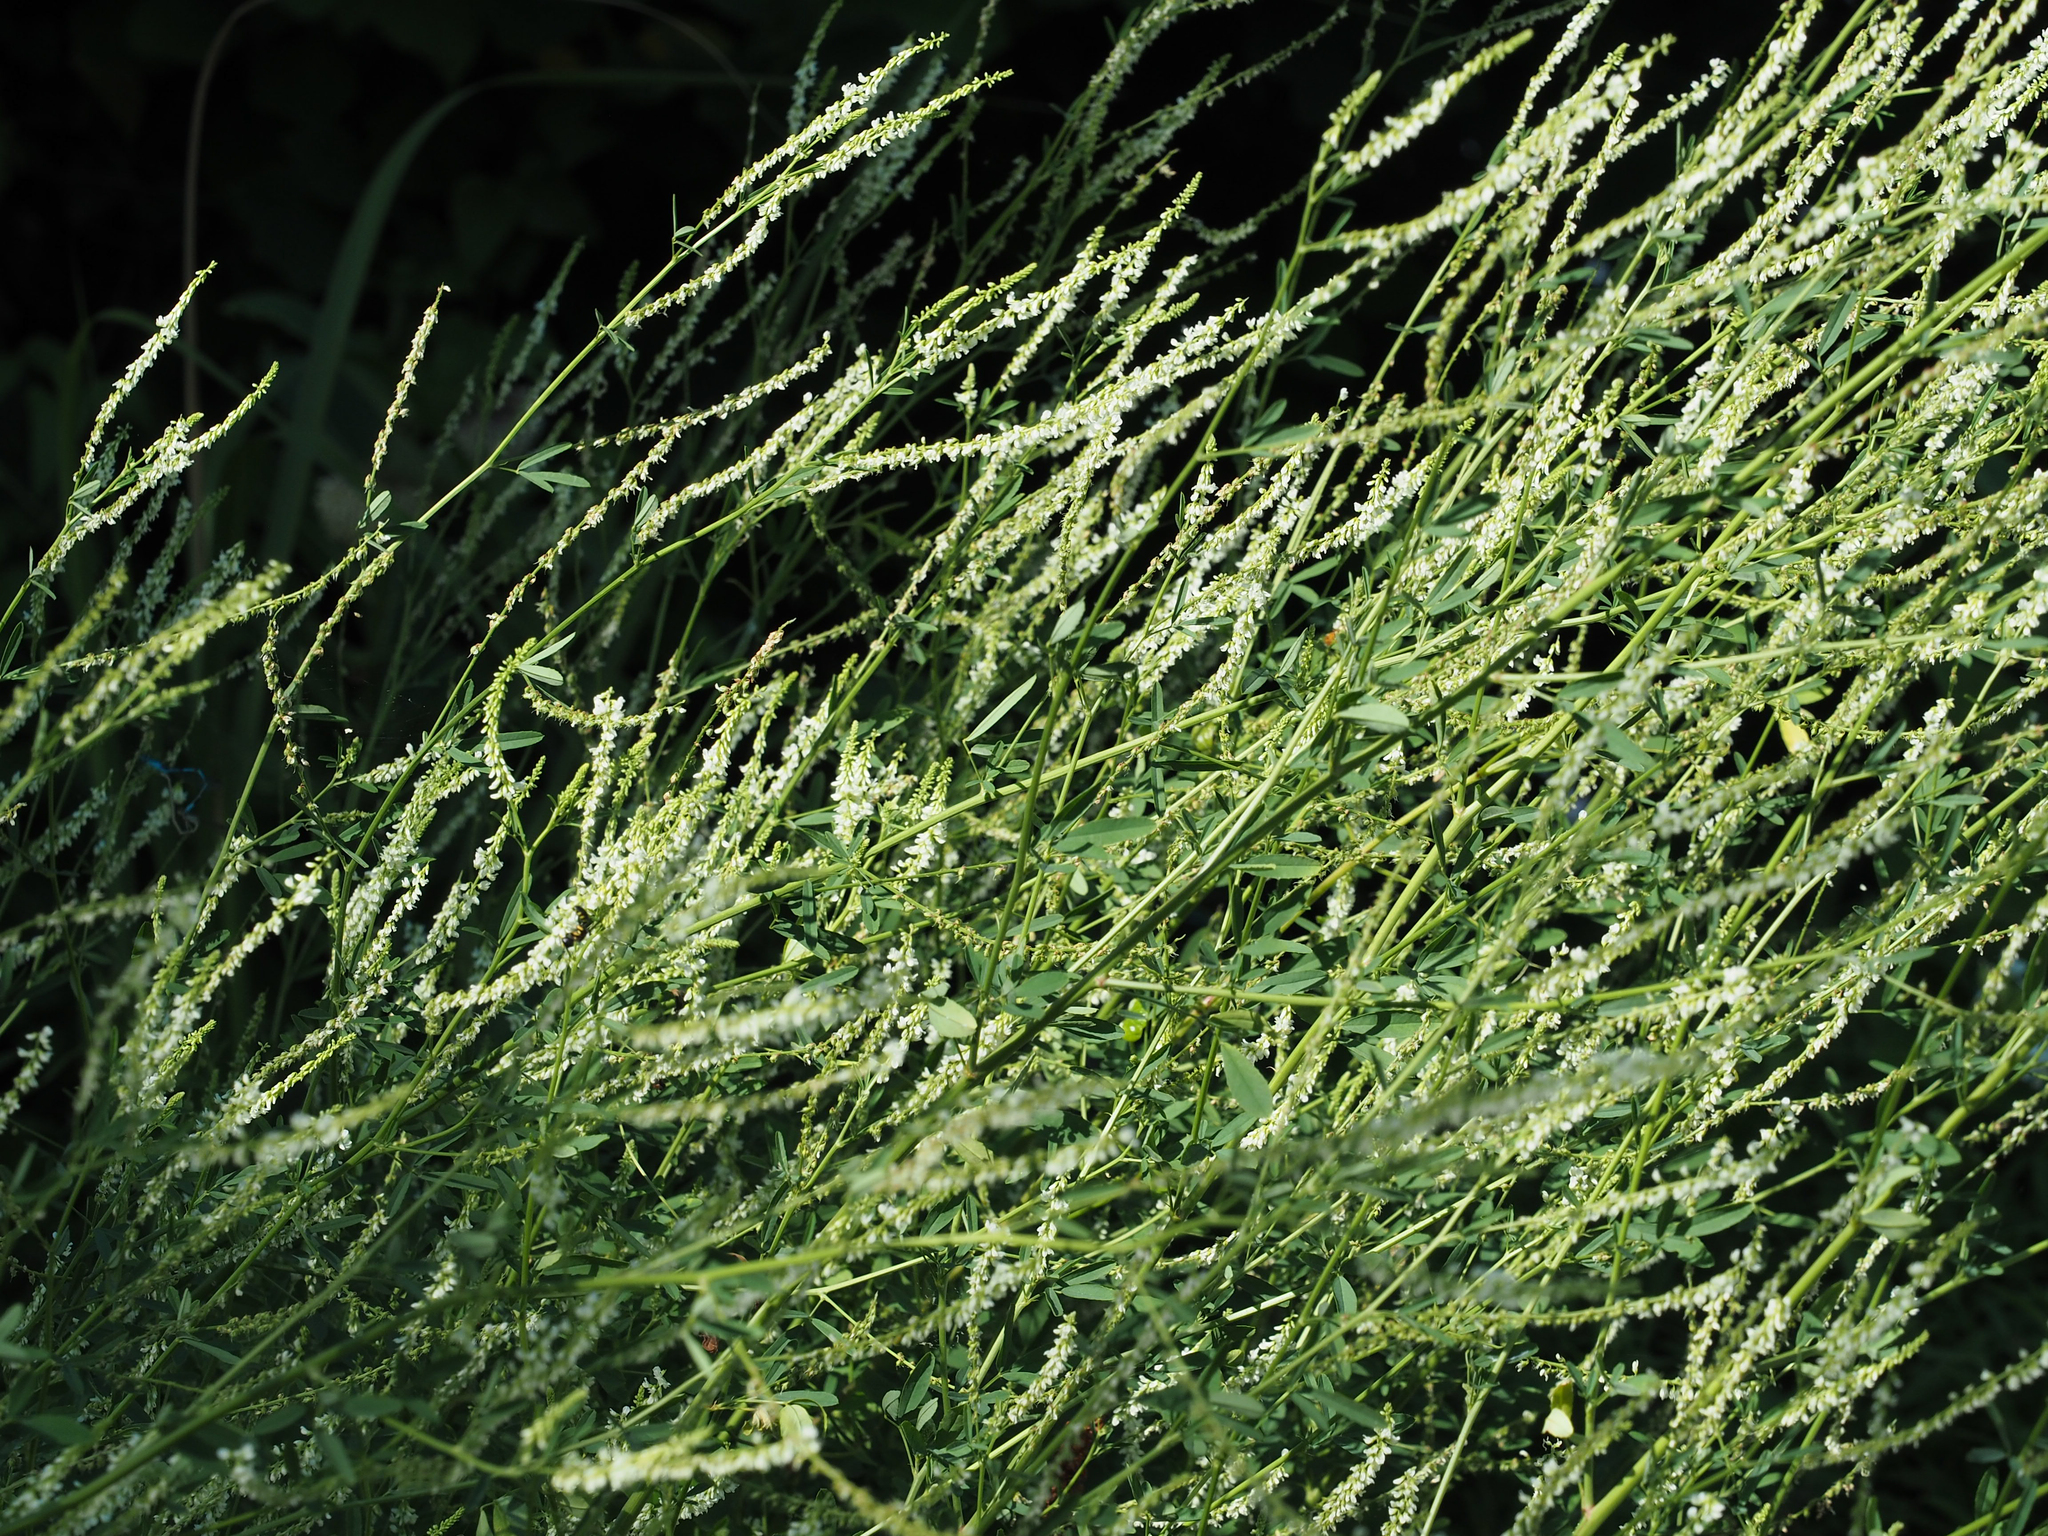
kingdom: Plantae
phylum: Tracheophyta
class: Magnoliopsida
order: Fabales
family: Fabaceae
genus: Melilotus
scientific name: Melilotus albus
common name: White melilot
